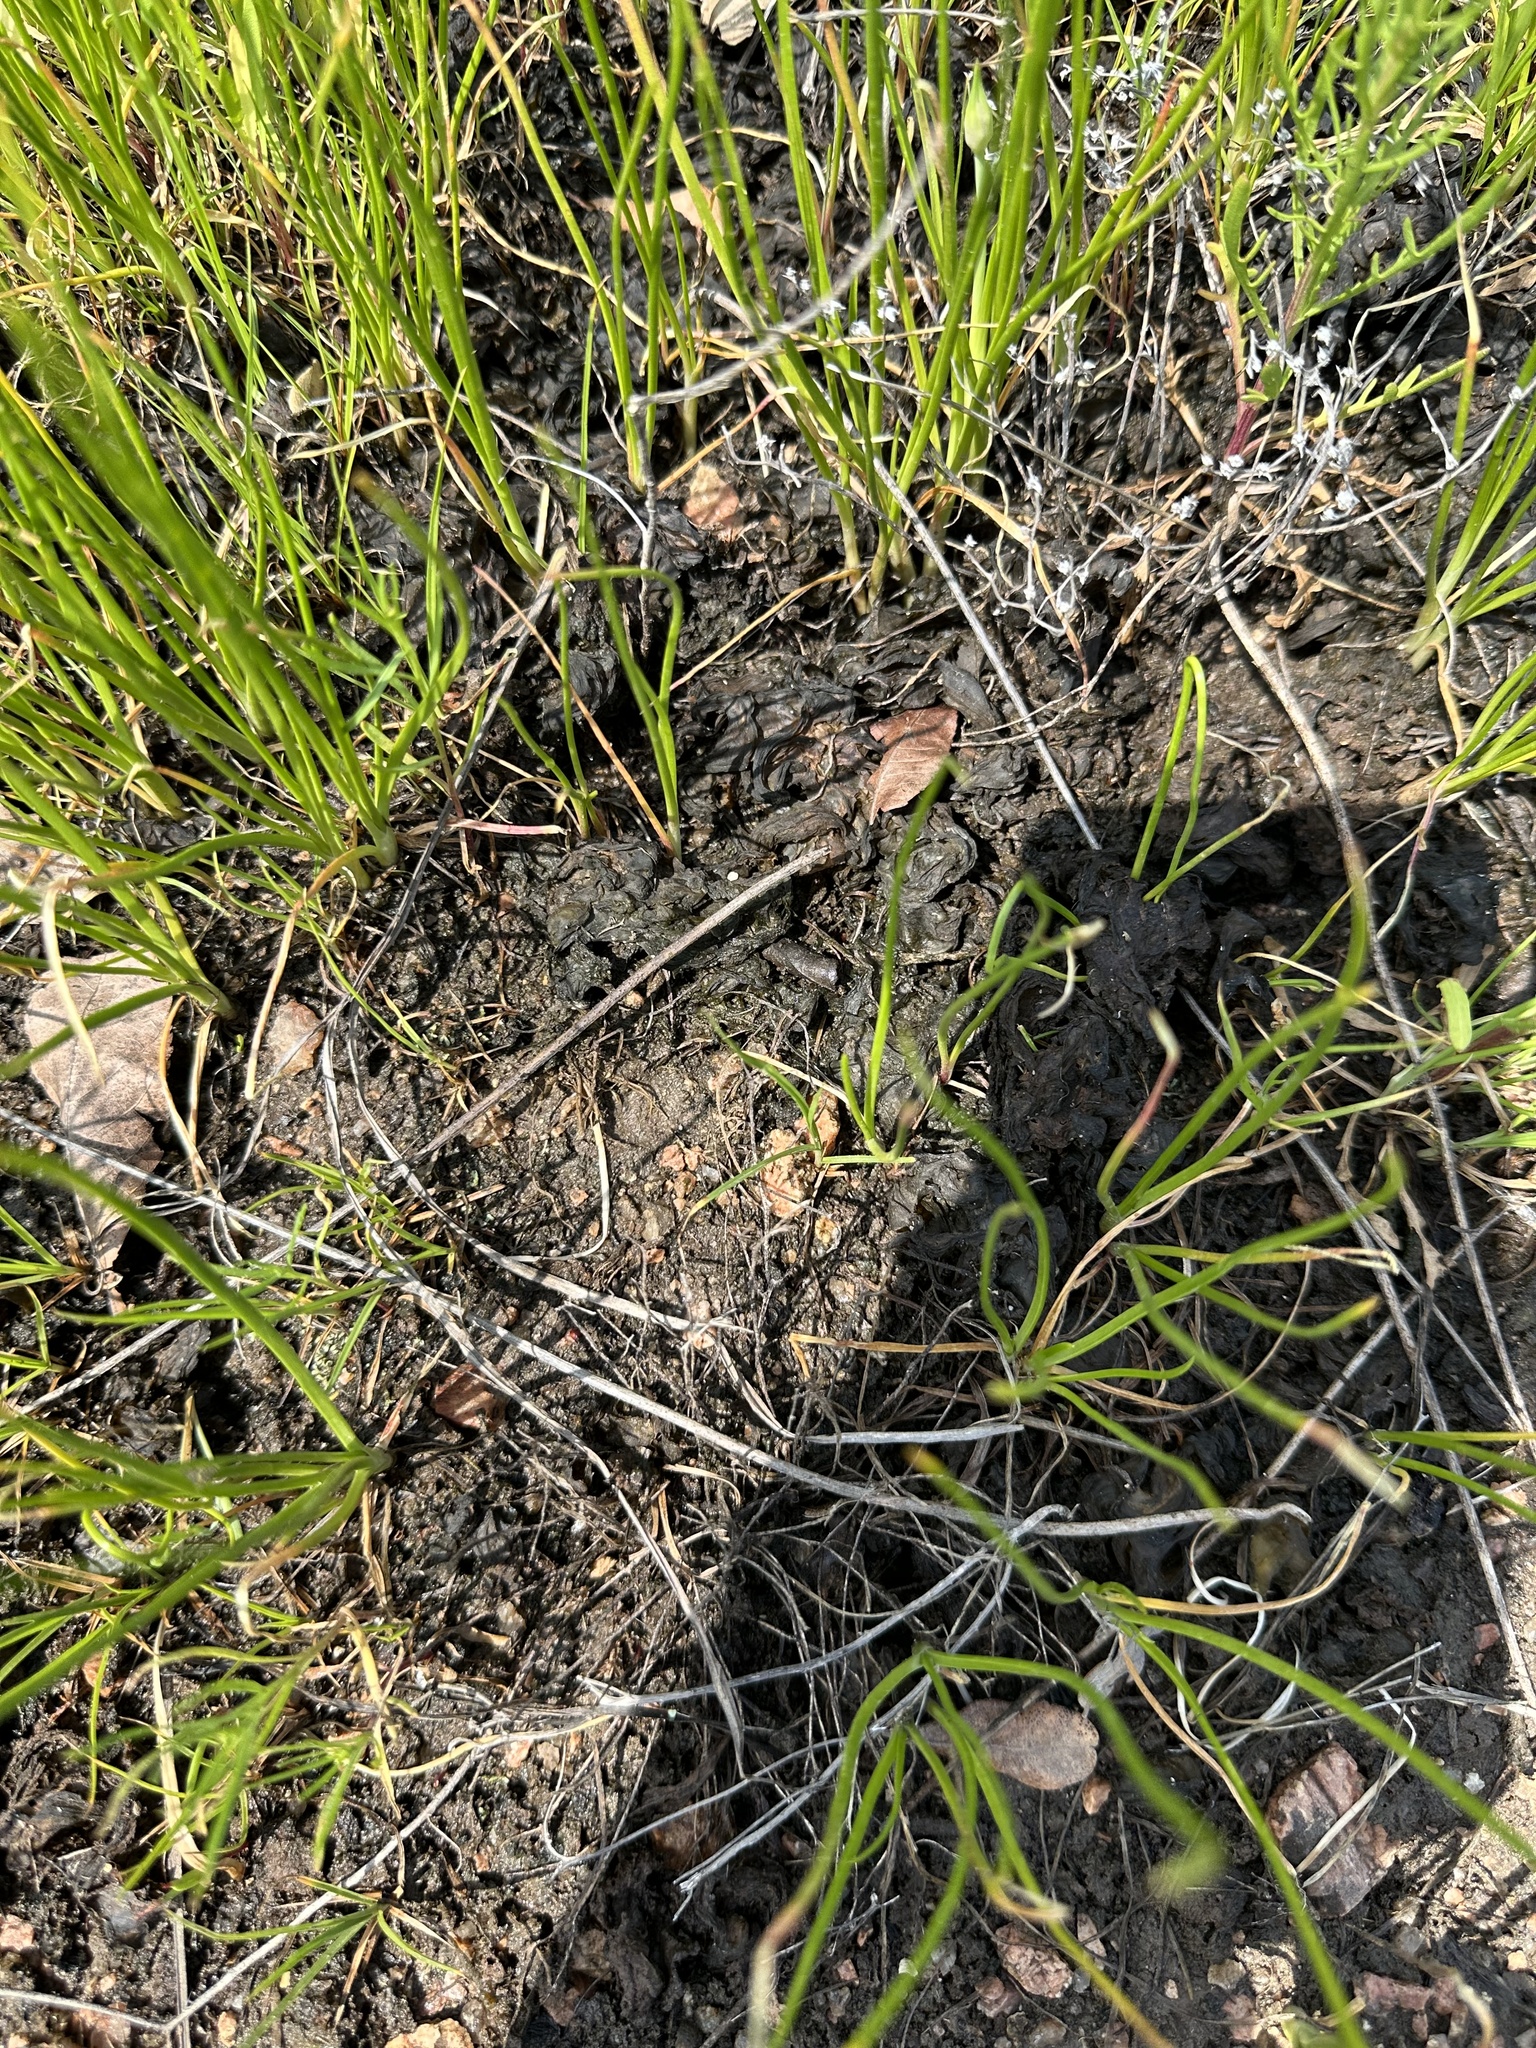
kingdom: Bacteria
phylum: Cyanobacteria
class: Cyanobacteriia
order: Cyanobacteriales
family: Nostocaceae
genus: Nostoc
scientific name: Nostoc commune
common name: Star jelly
